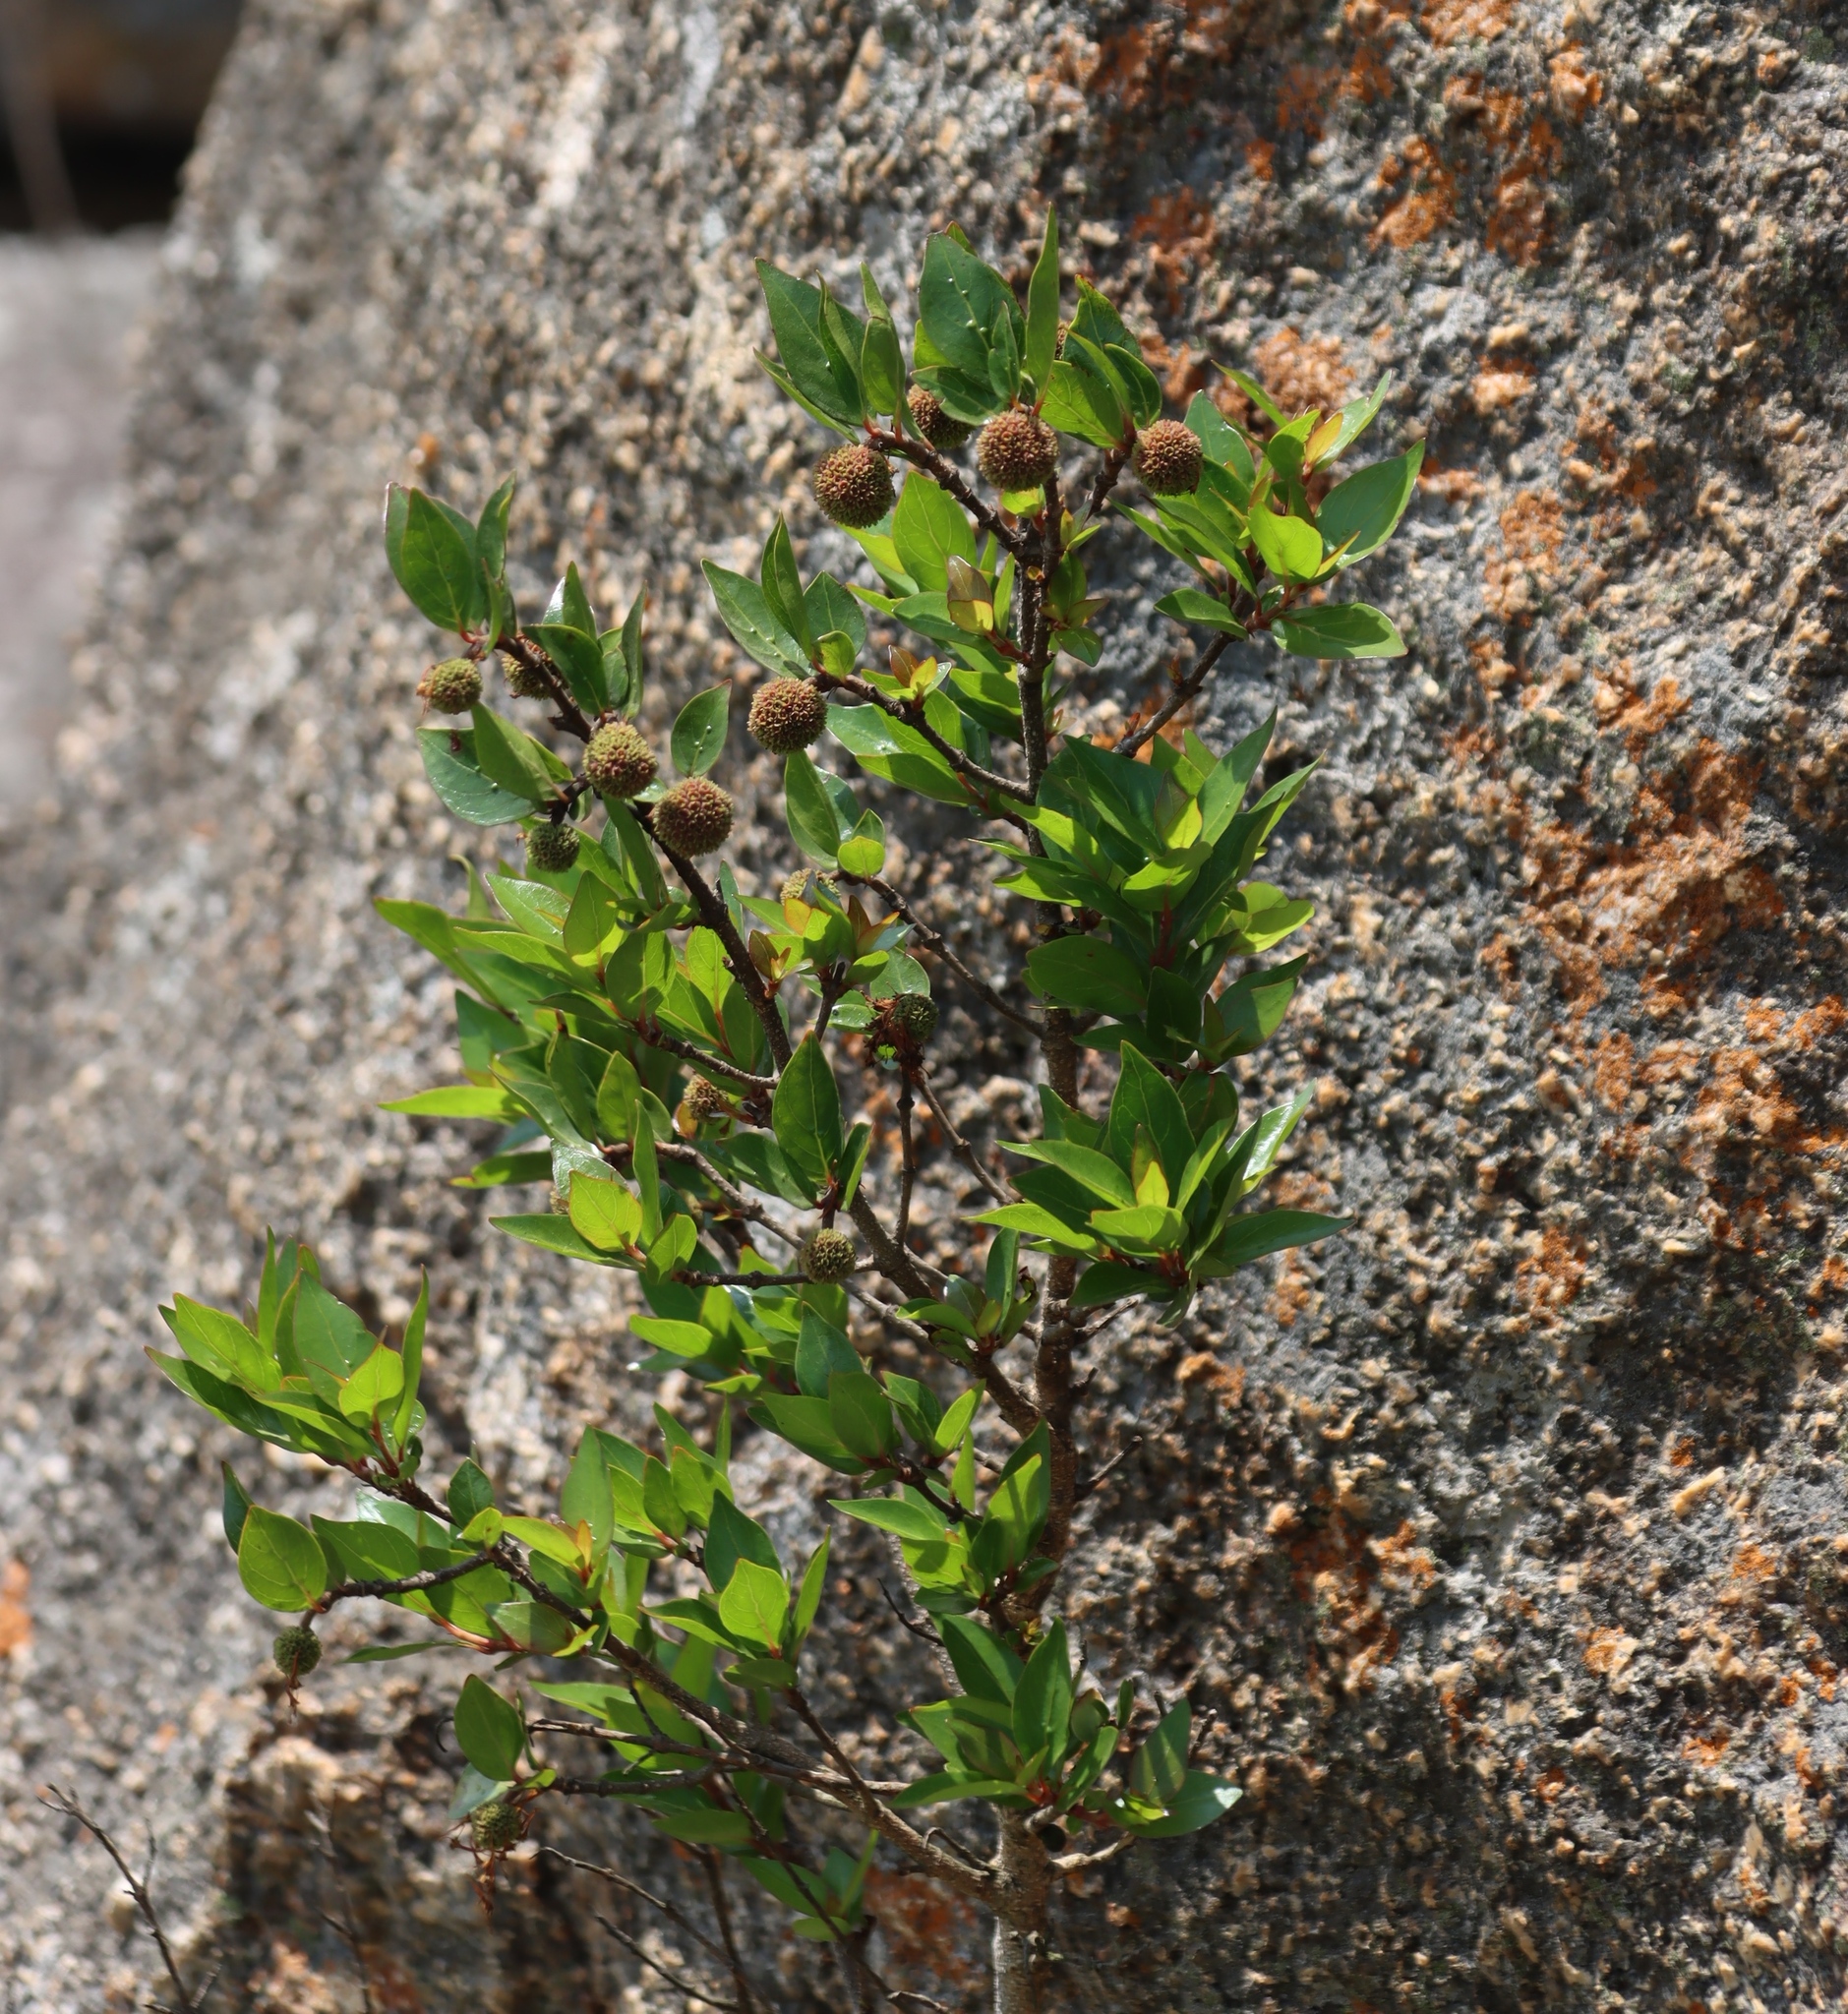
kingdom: Plantae
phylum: Tracheophyta
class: Magnoliopsida
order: Gentianales
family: Rubiaceae
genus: Cephalanthus
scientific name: Cephalanthus natalensis
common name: Strawberry bush
